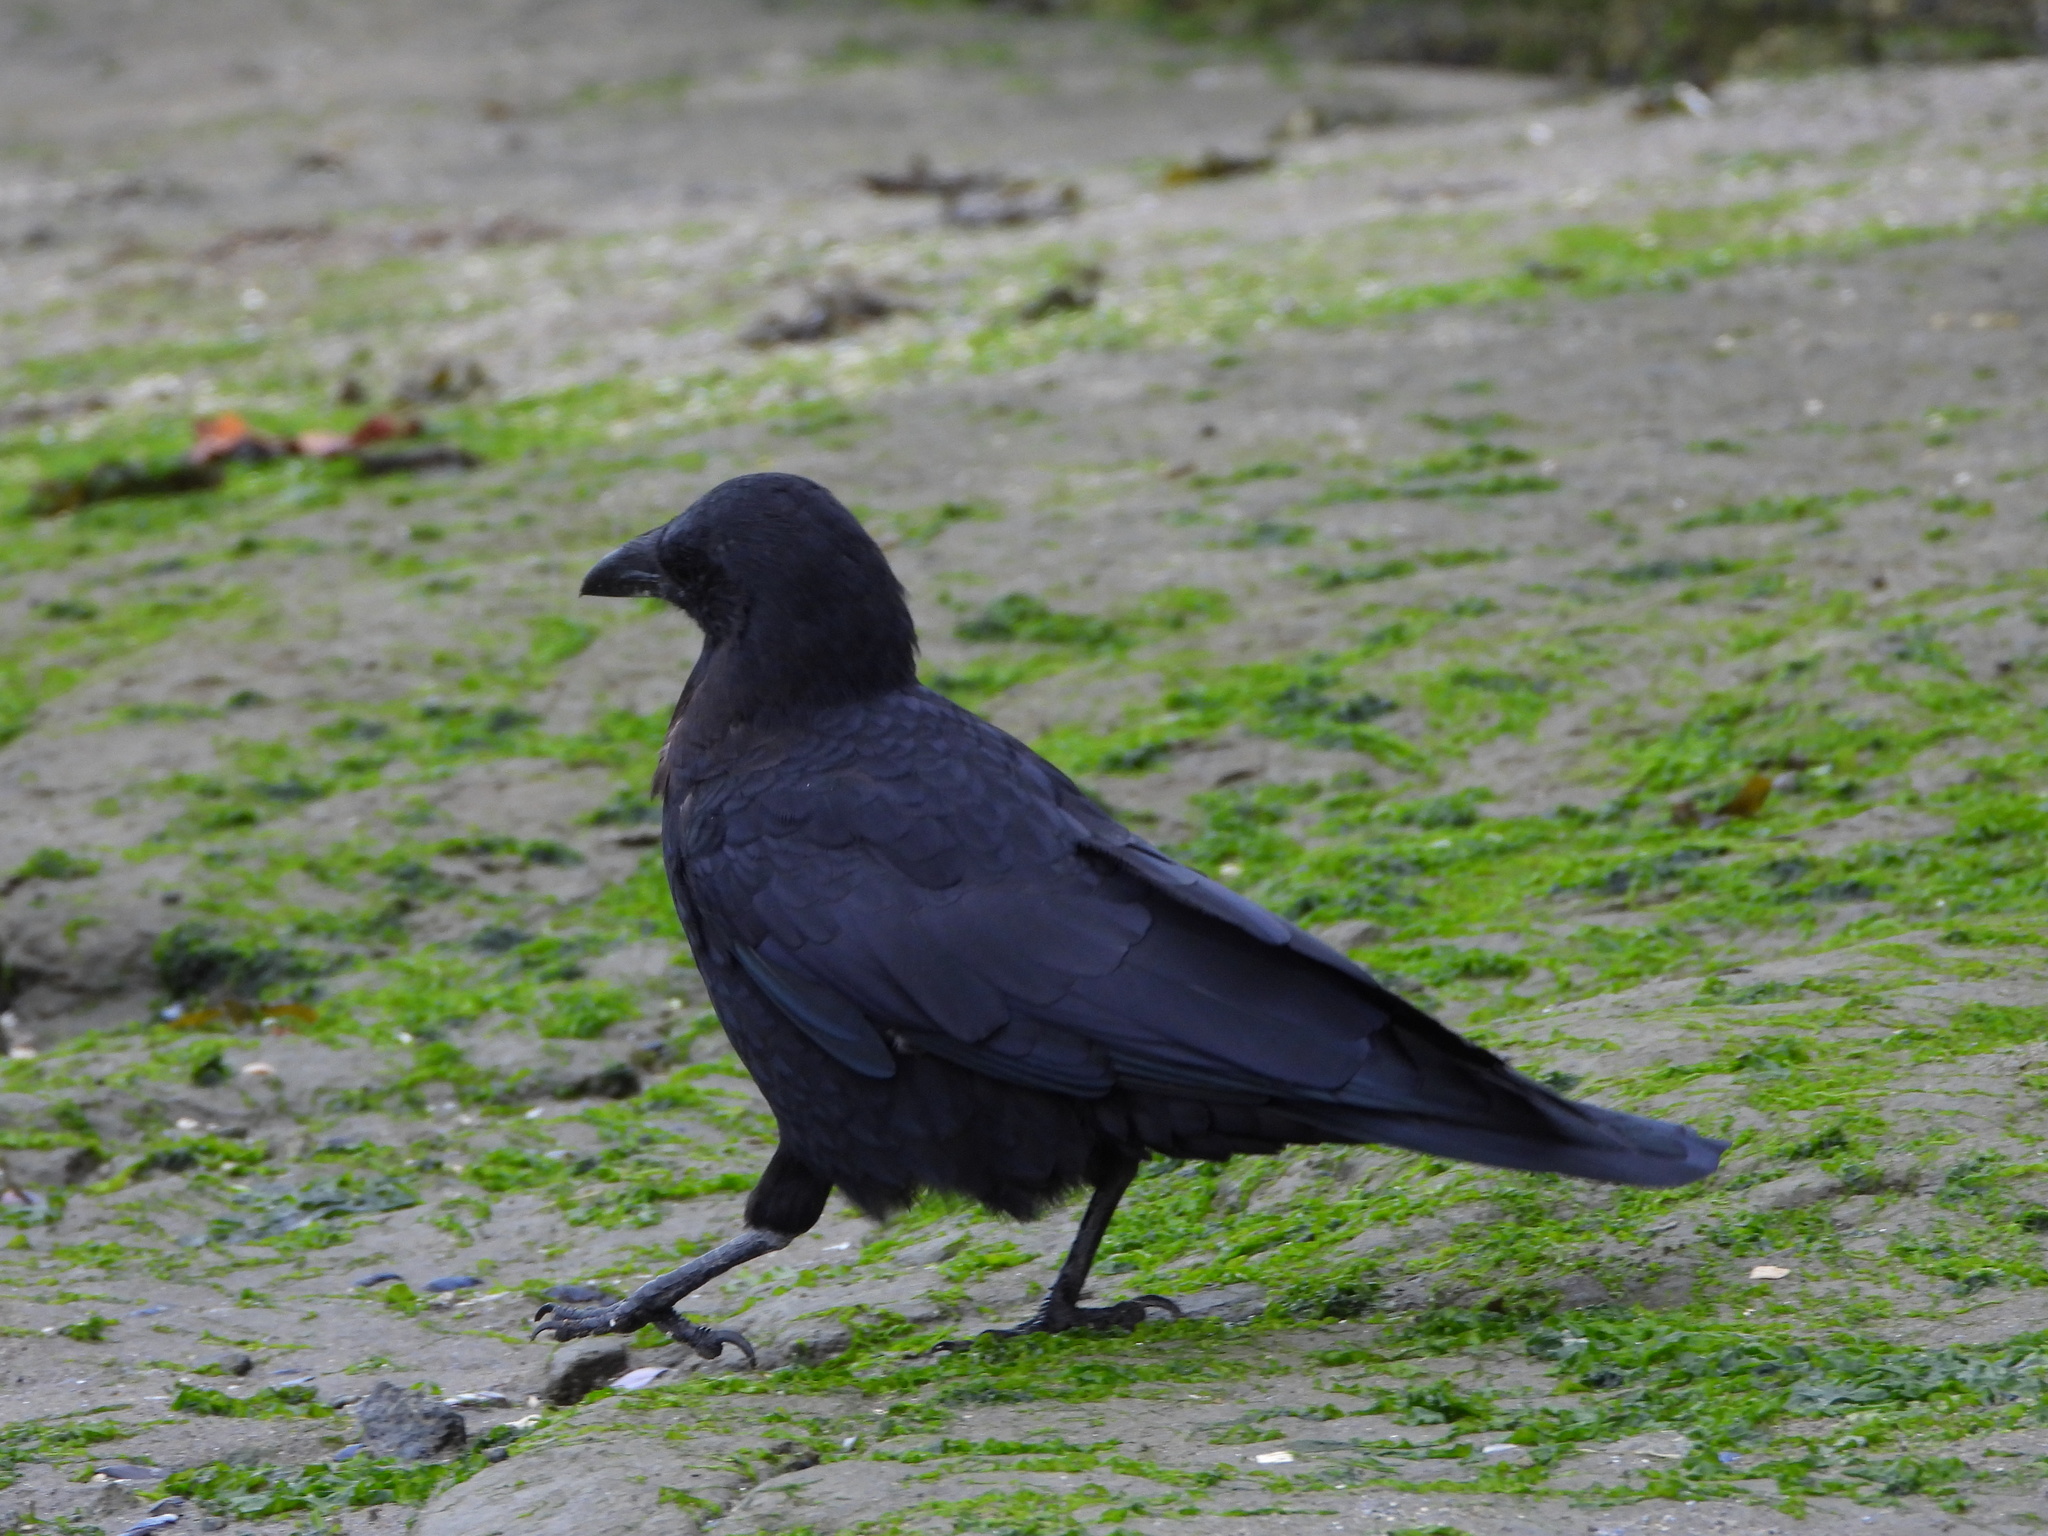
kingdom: Animalia
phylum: Chordata
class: Aves
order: Passeriformes
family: Corvidae
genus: Corvus
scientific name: Corvus brachyrhynchos
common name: American crow
